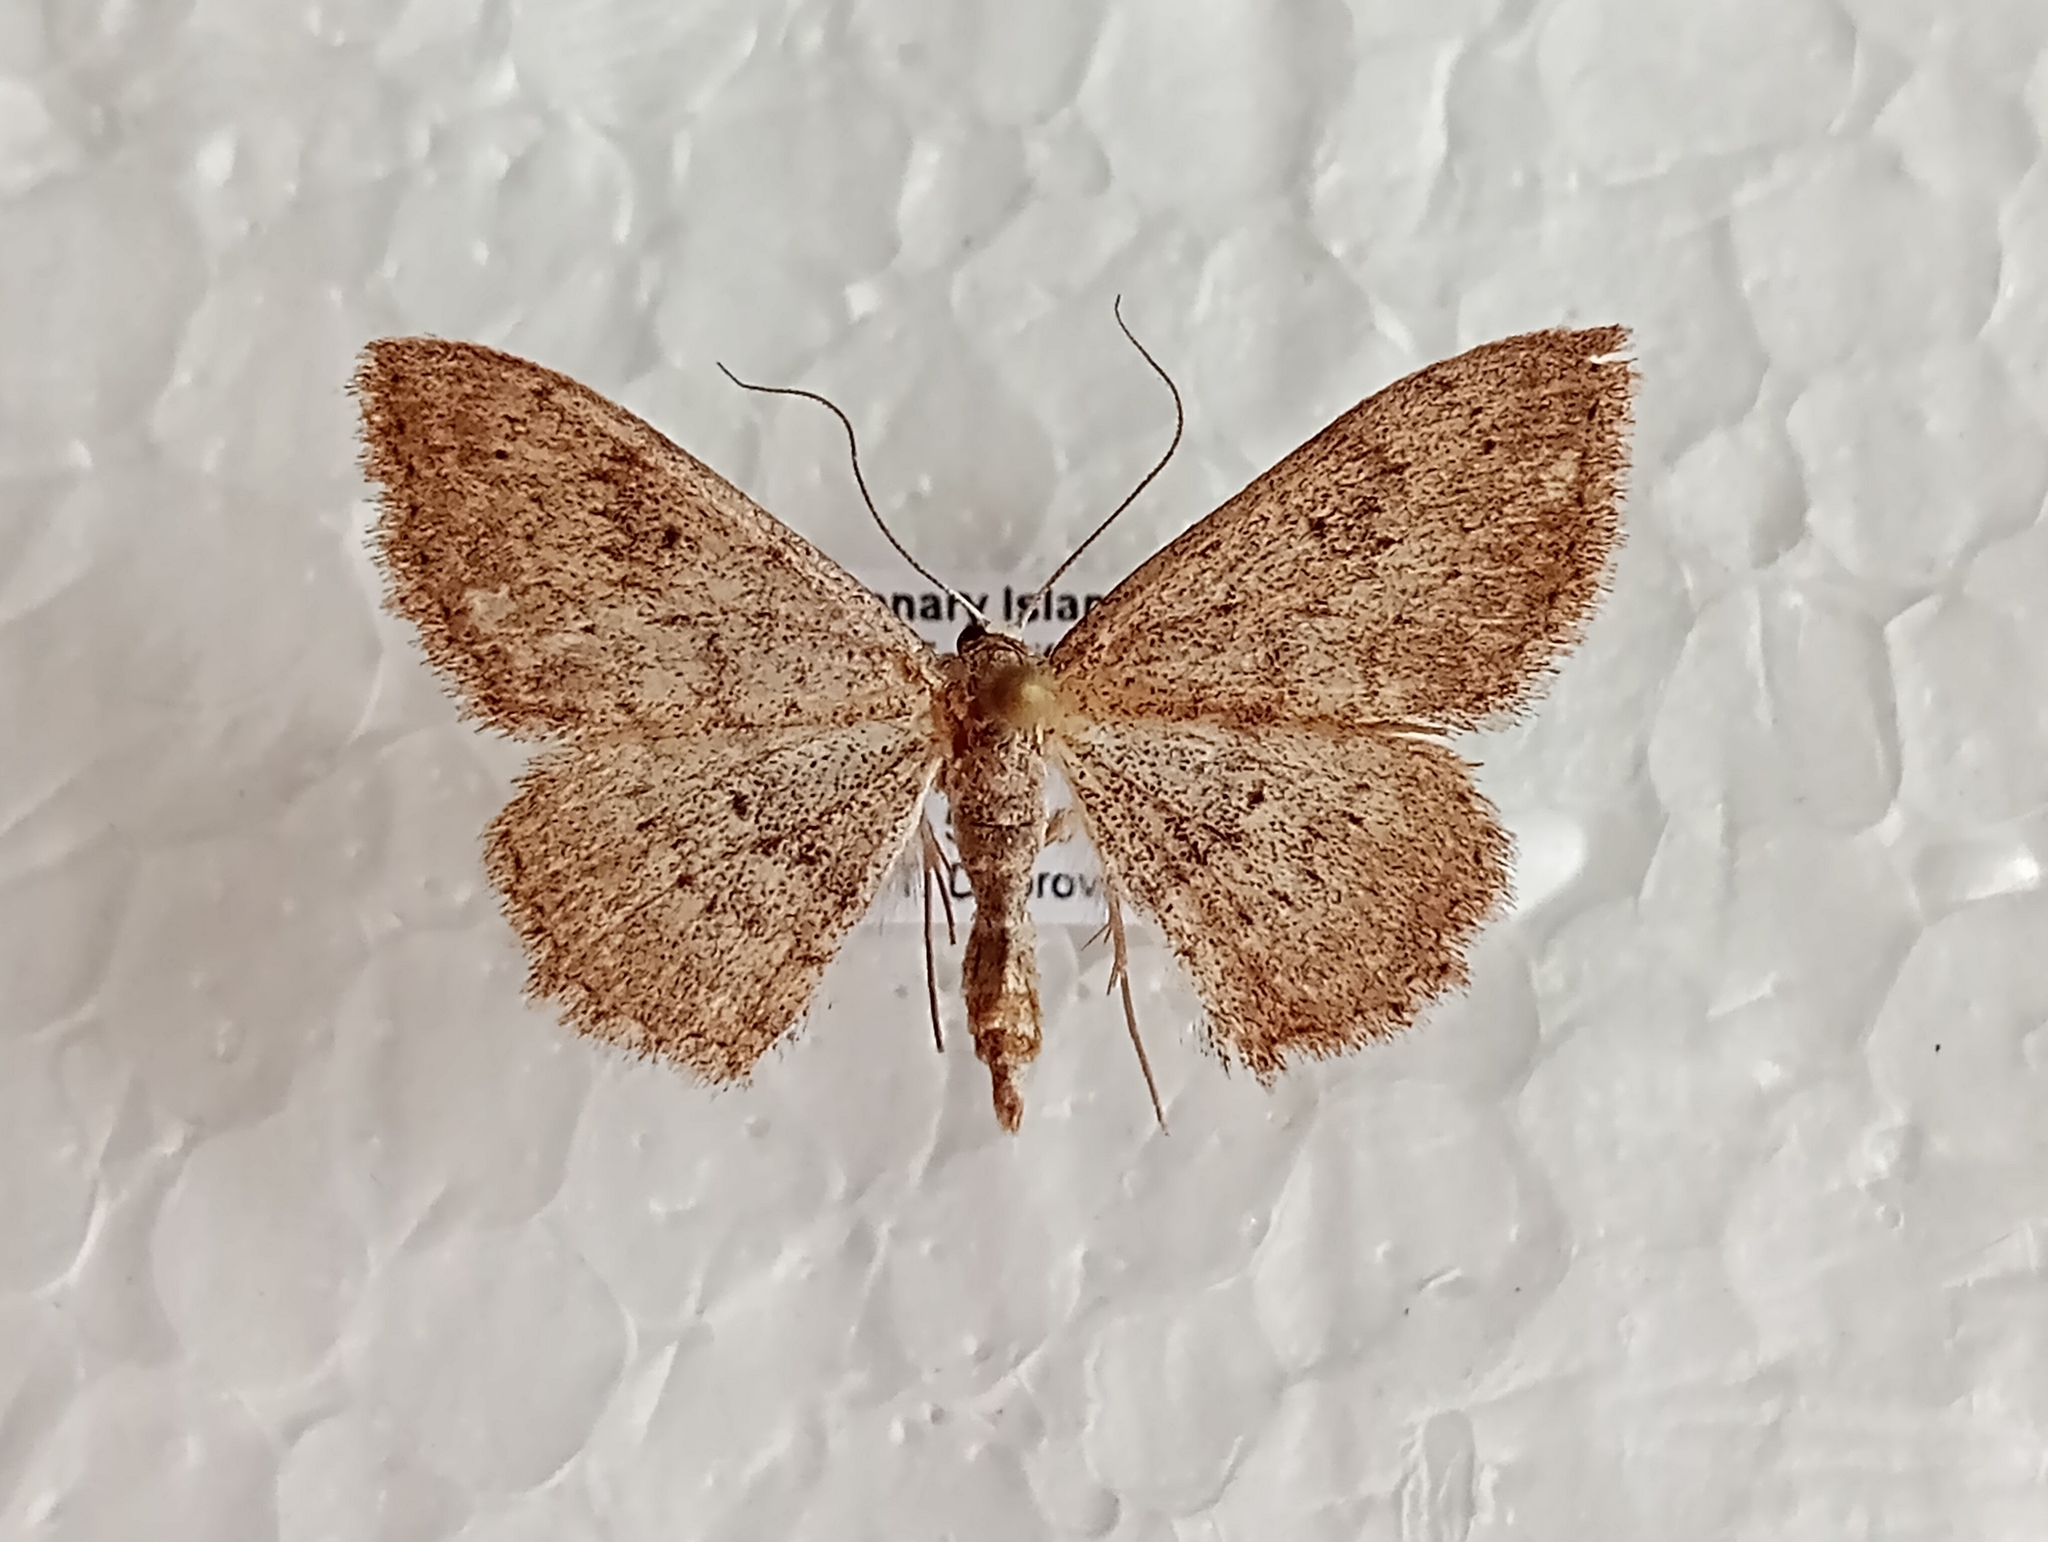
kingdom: Animalia
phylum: Arthropoda
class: Insecta
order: Lepidoptera
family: Geometridae
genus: Scopula
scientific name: Scopula guancharia
